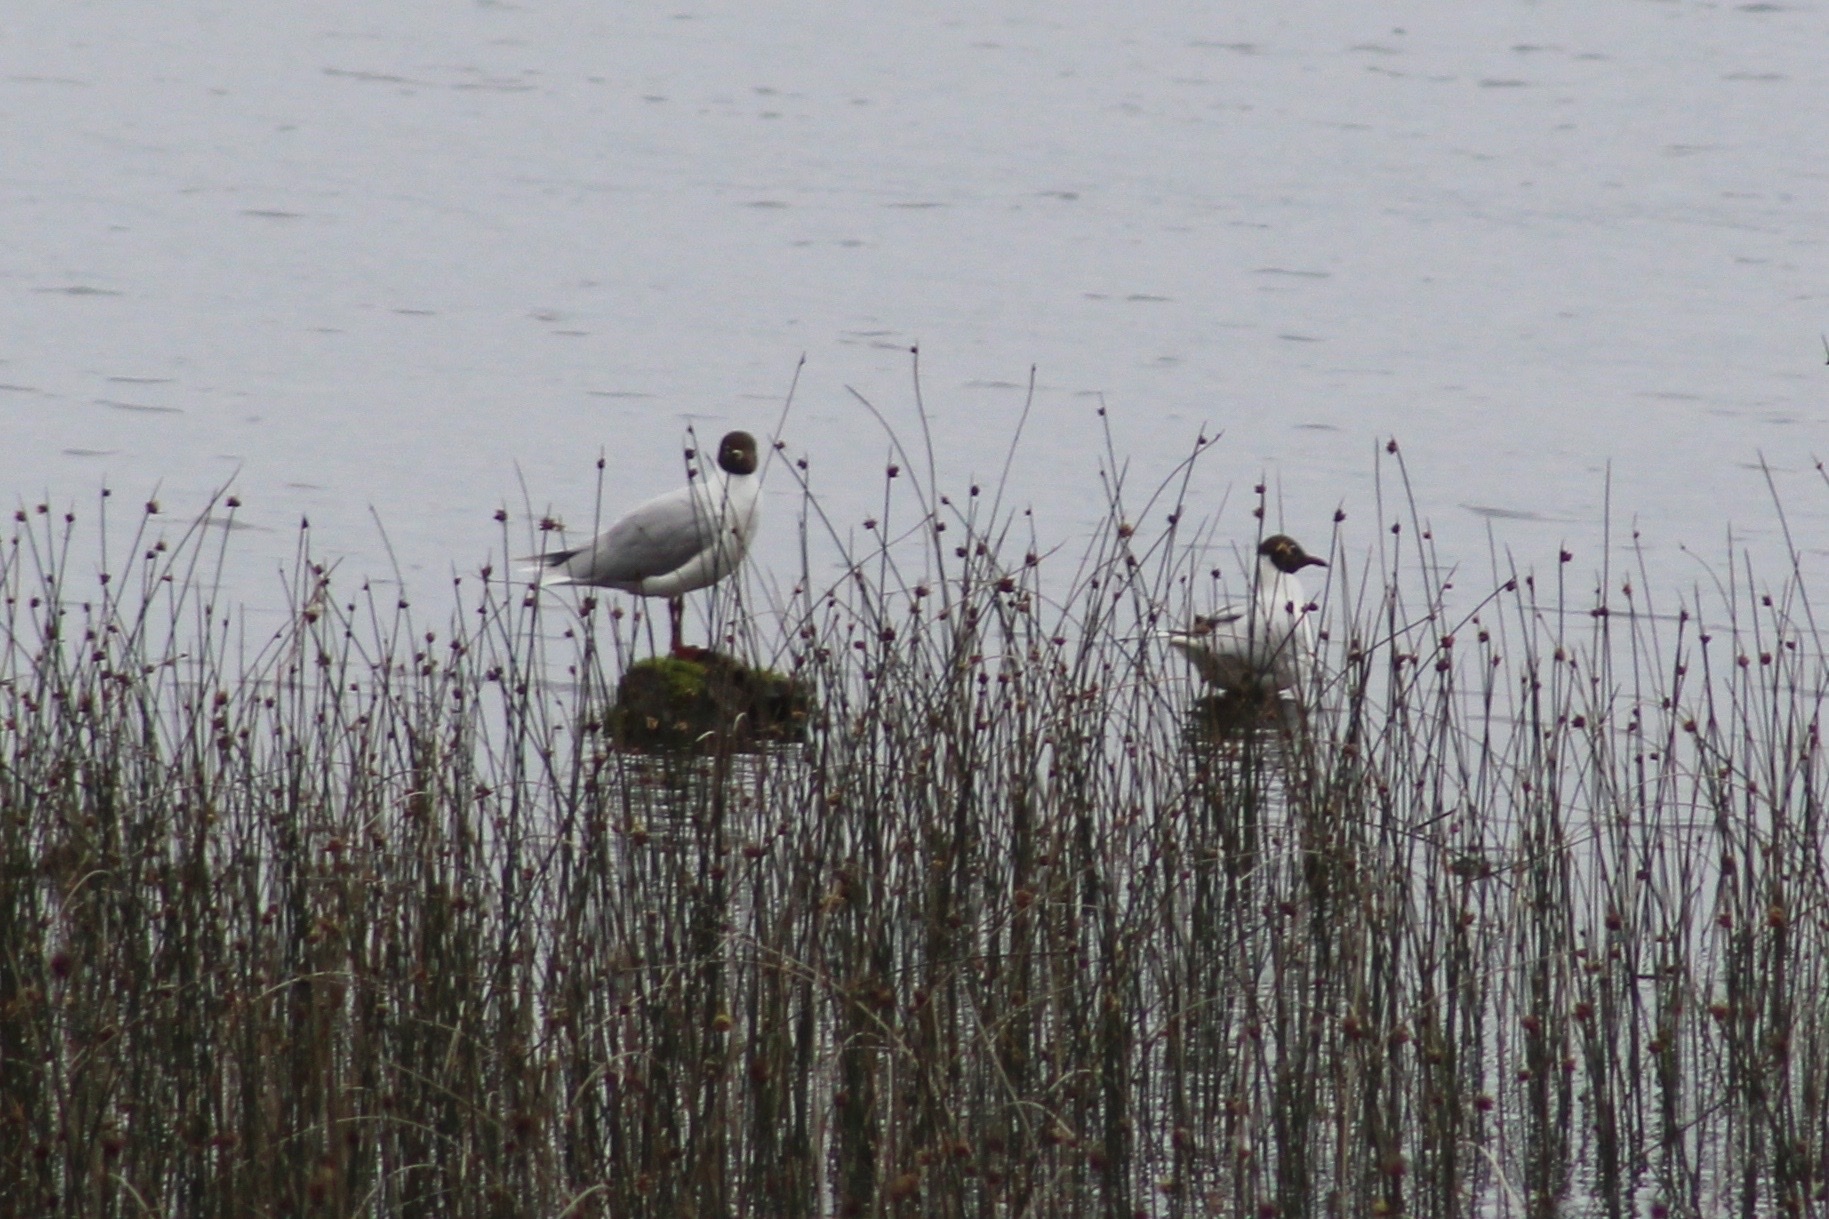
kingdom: Animalia
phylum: Chordata
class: Aves
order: Charadriiformes
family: Laridae
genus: Chroicocephalus
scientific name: Chroicocephalus maculipennis
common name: Brown-hooded gull
